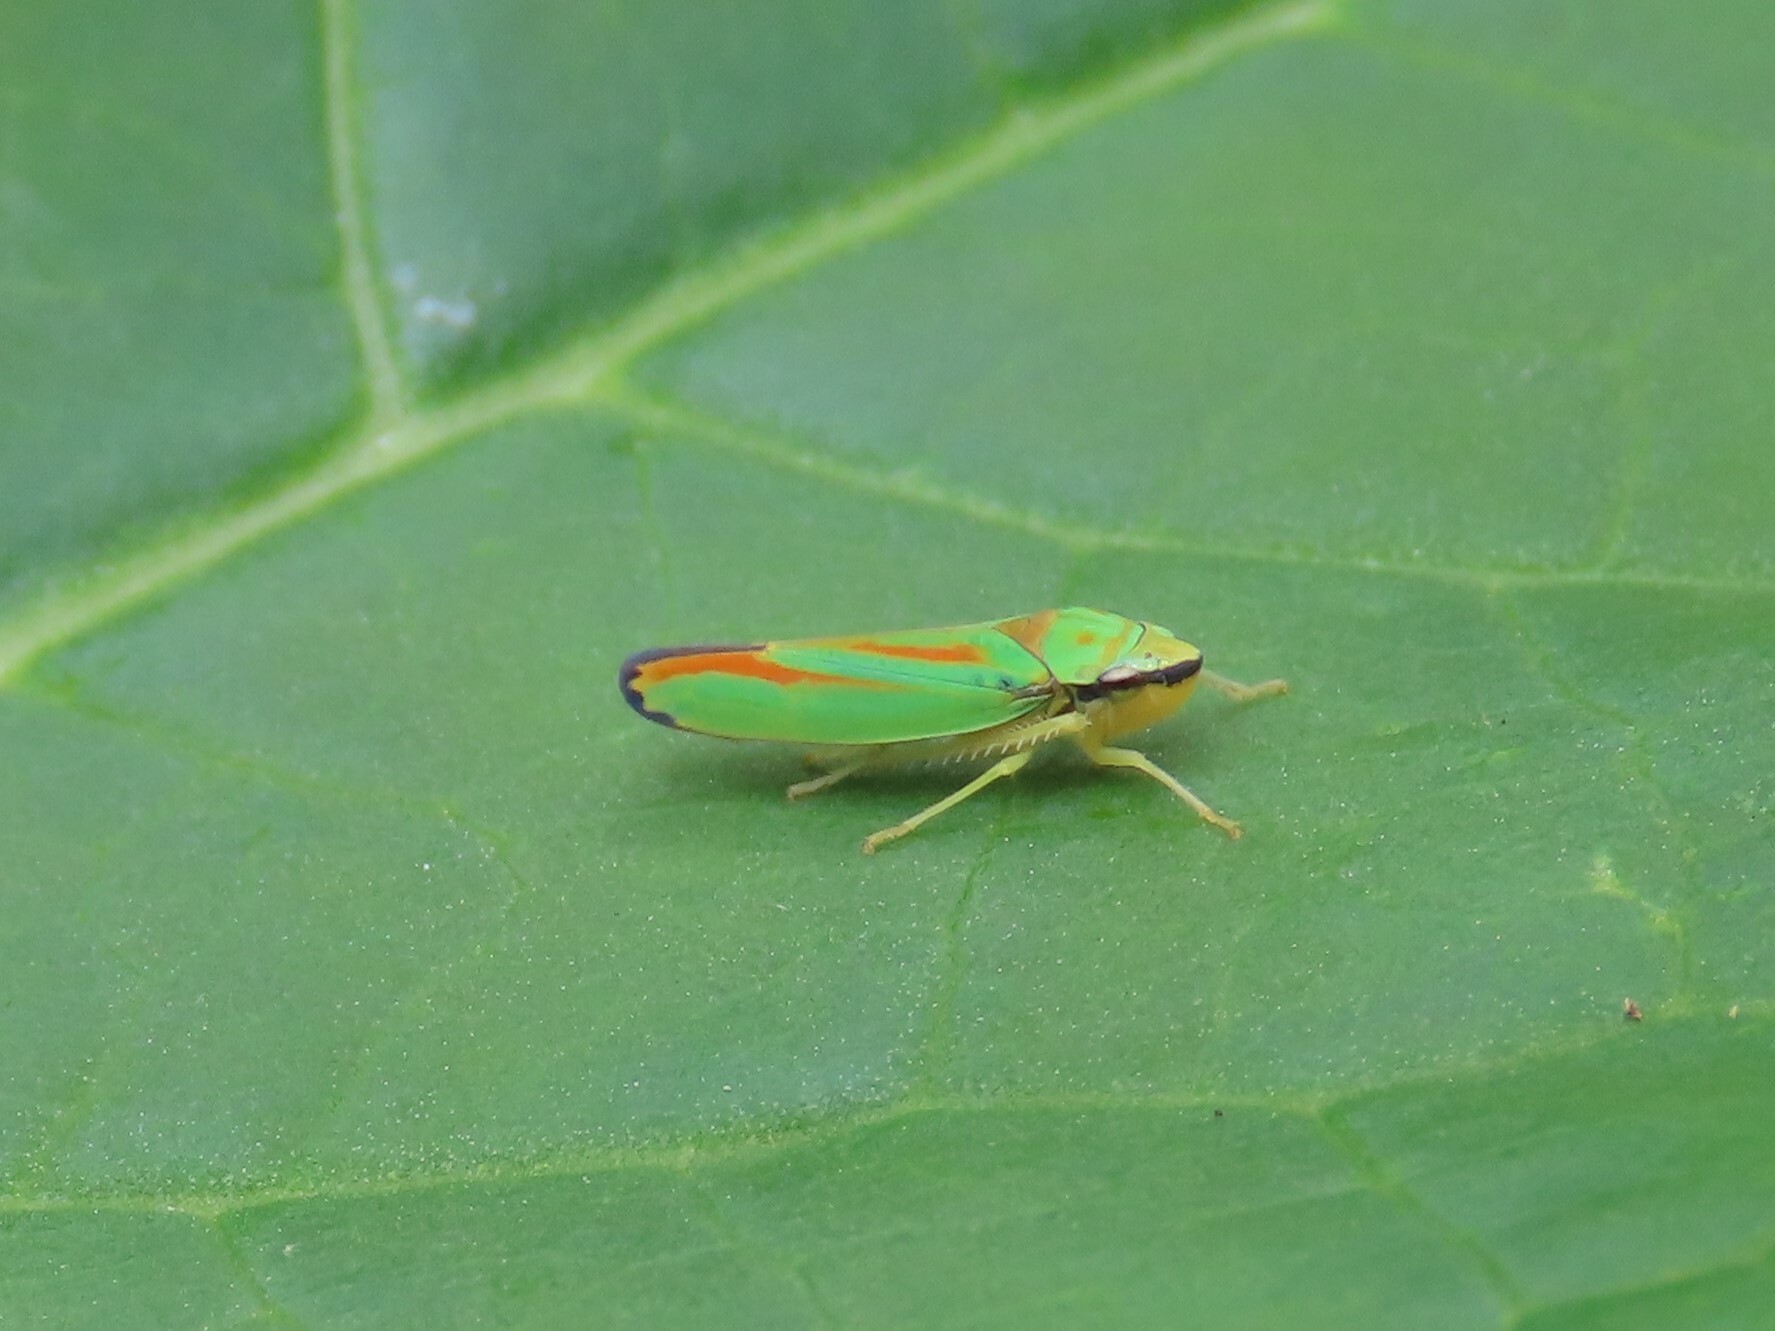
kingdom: Animalia
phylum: Arthropoda
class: Insecta
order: Hemiptera
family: Cicadellidae
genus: Graphocephala
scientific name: Graphocephala fennahi
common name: Rhododendron leafhopper
